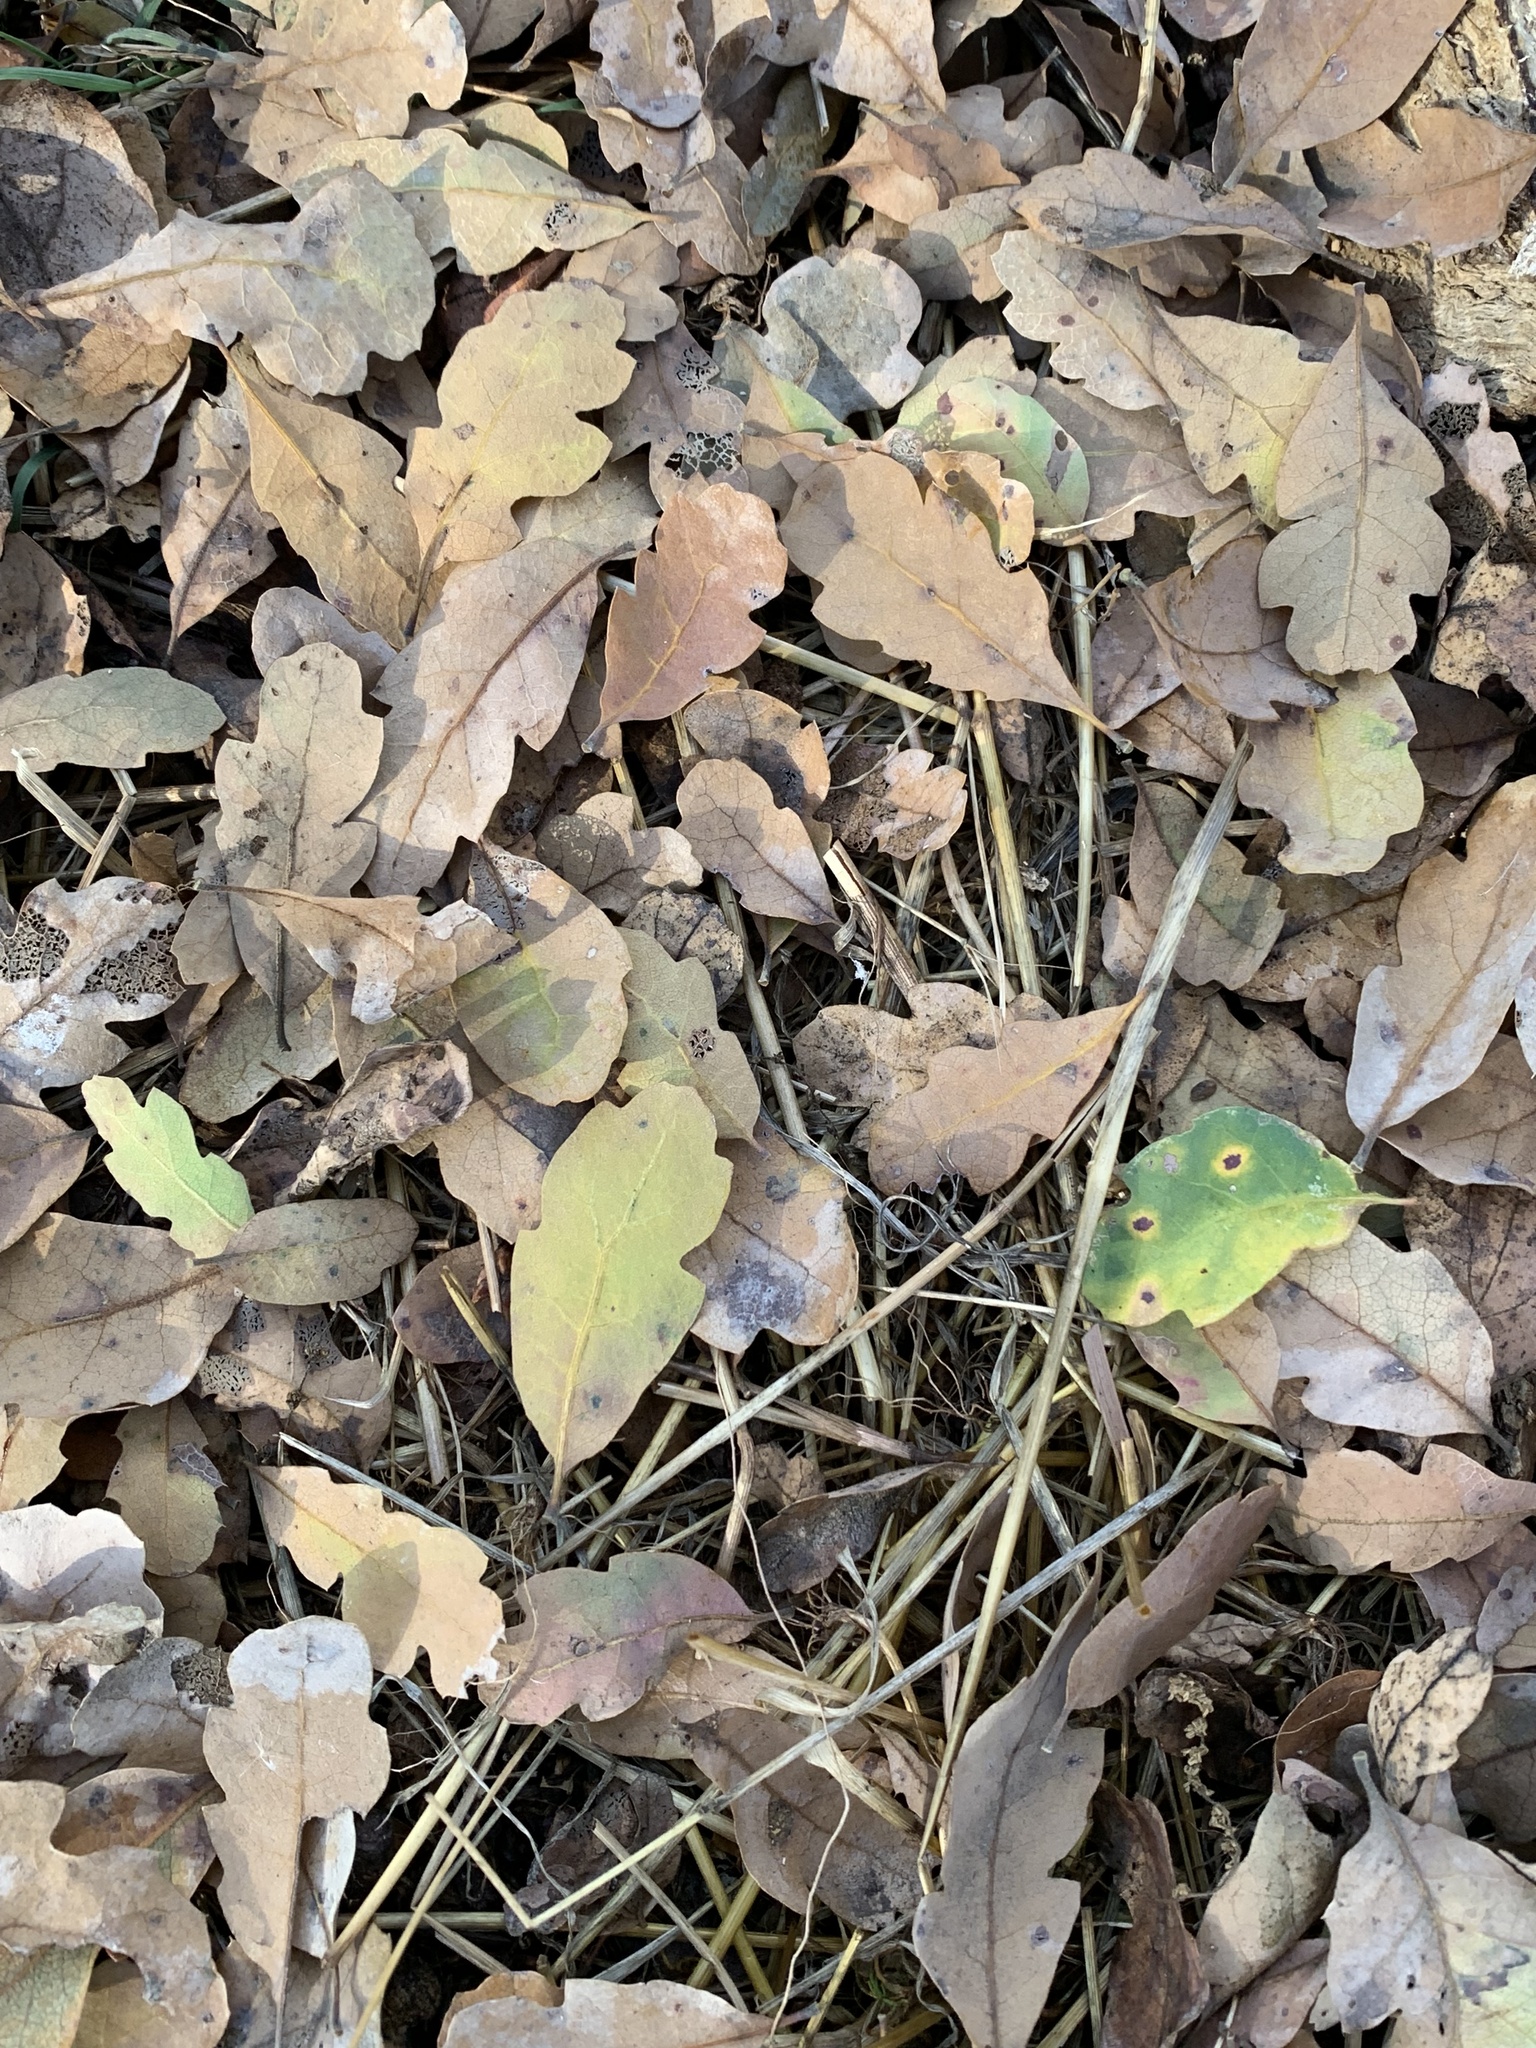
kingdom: Plantae
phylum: Tracheophyta
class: Magnoliopsida
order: Fagales
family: Fagaceae
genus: Quercus
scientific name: Quercus douglasii
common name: Blue oak
